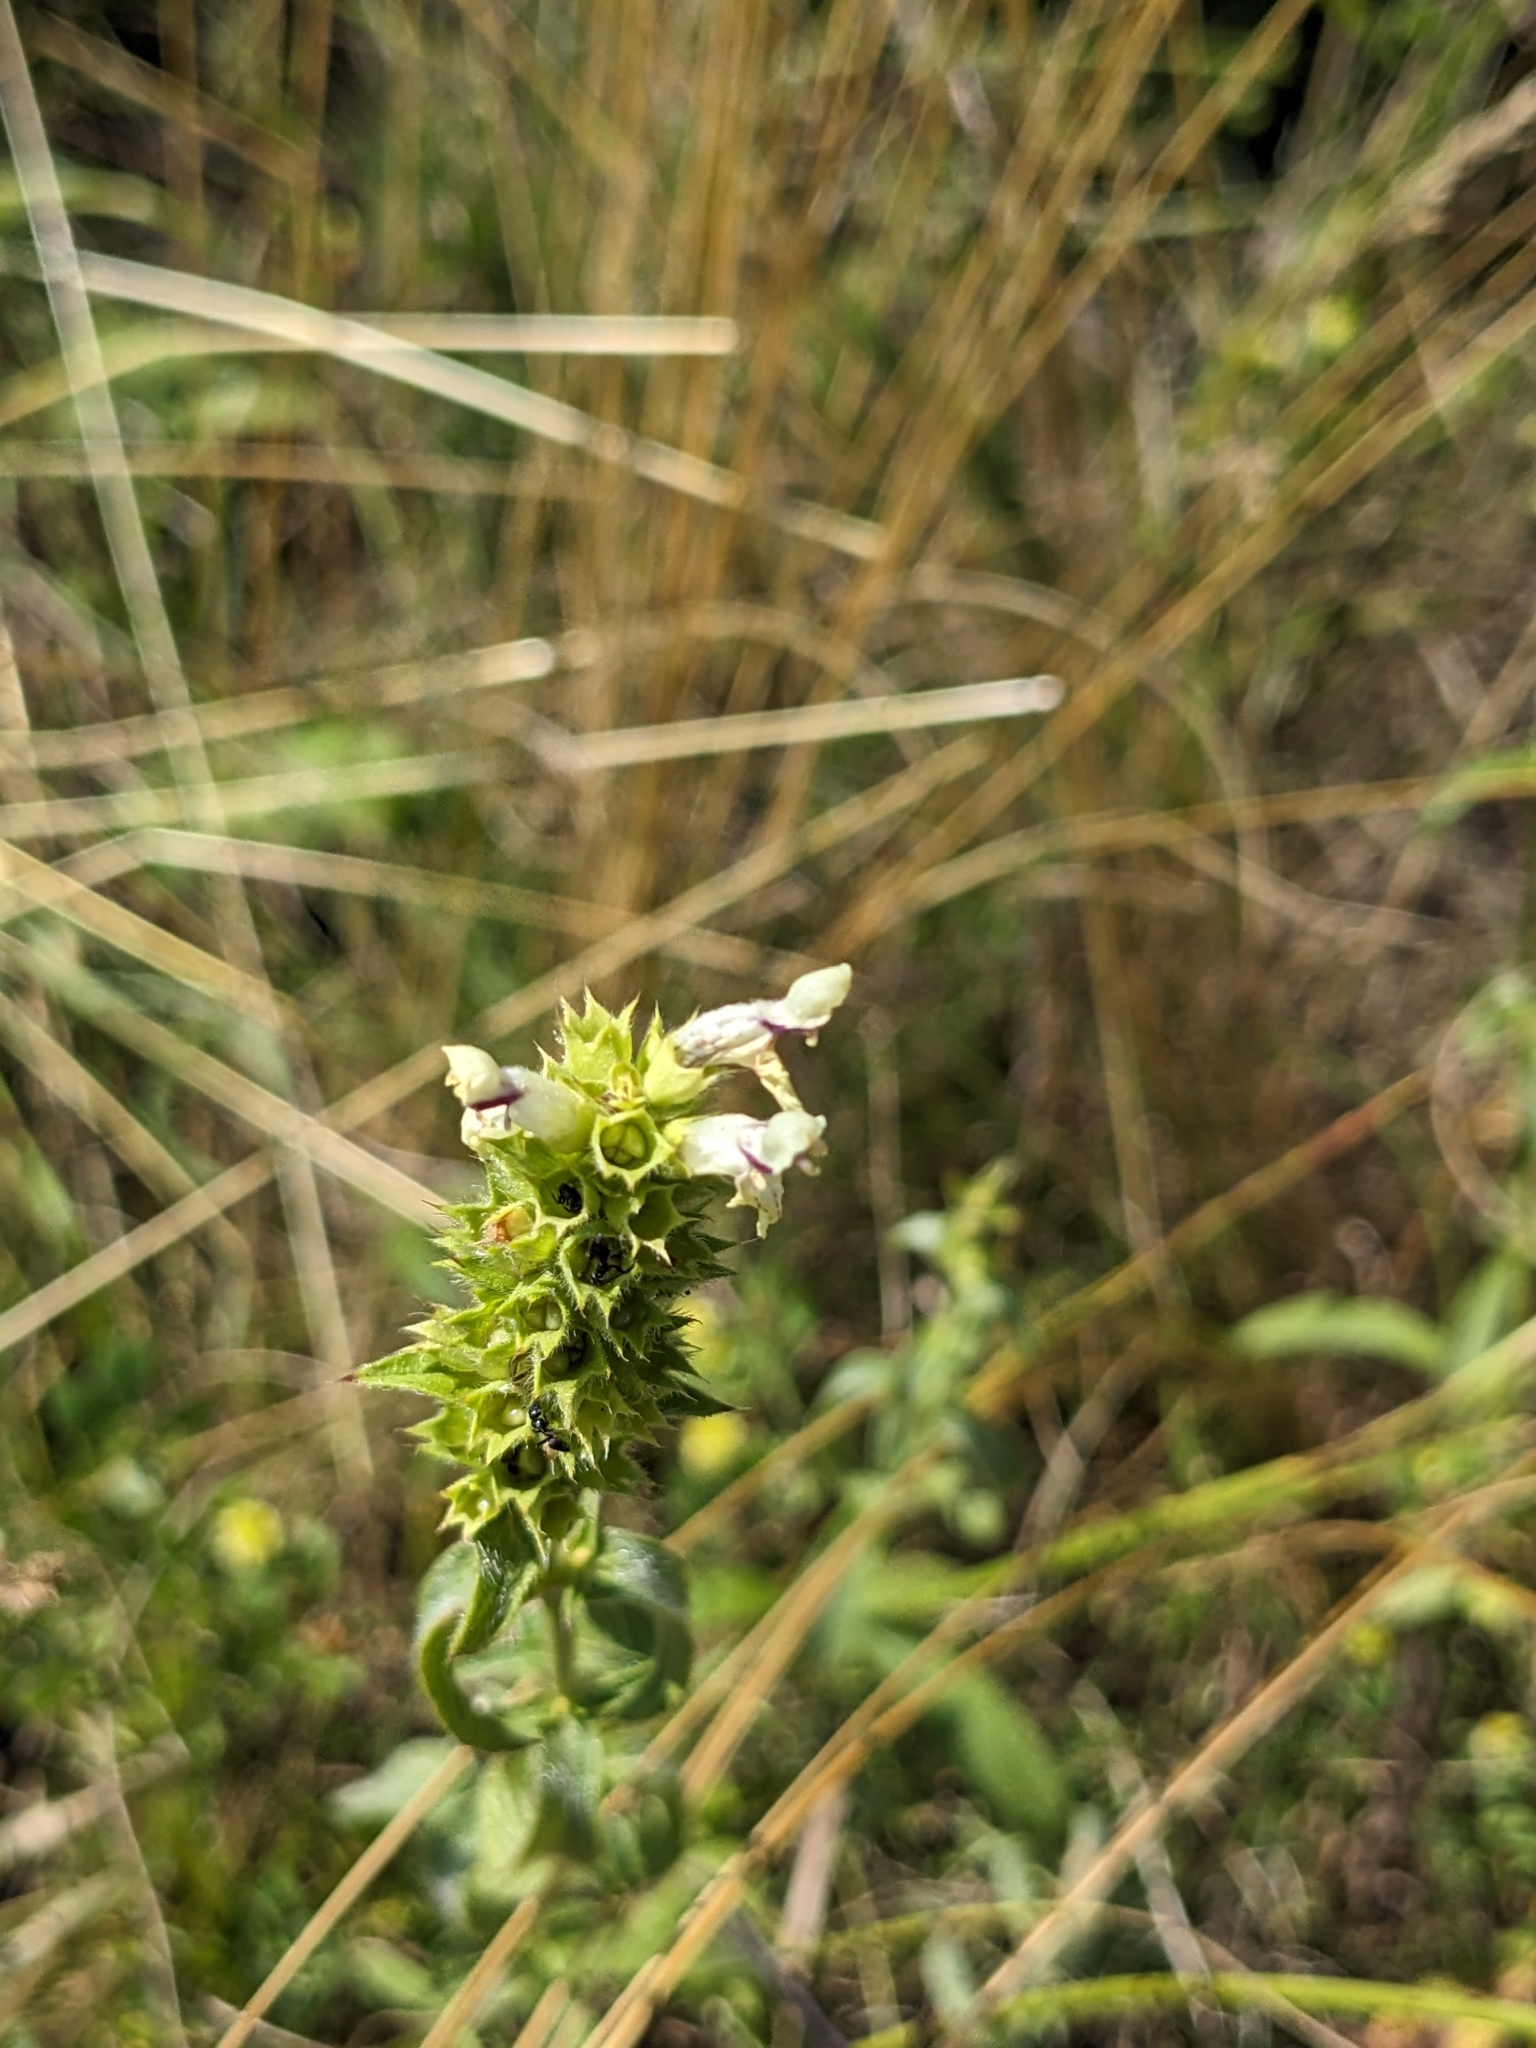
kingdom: Plantae
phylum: Tracheophyta
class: Magnoliopsida
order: Lamiales
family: Lamiaceae
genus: Stachys
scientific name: Stachys recta
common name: Perennial yellow-woundwort
